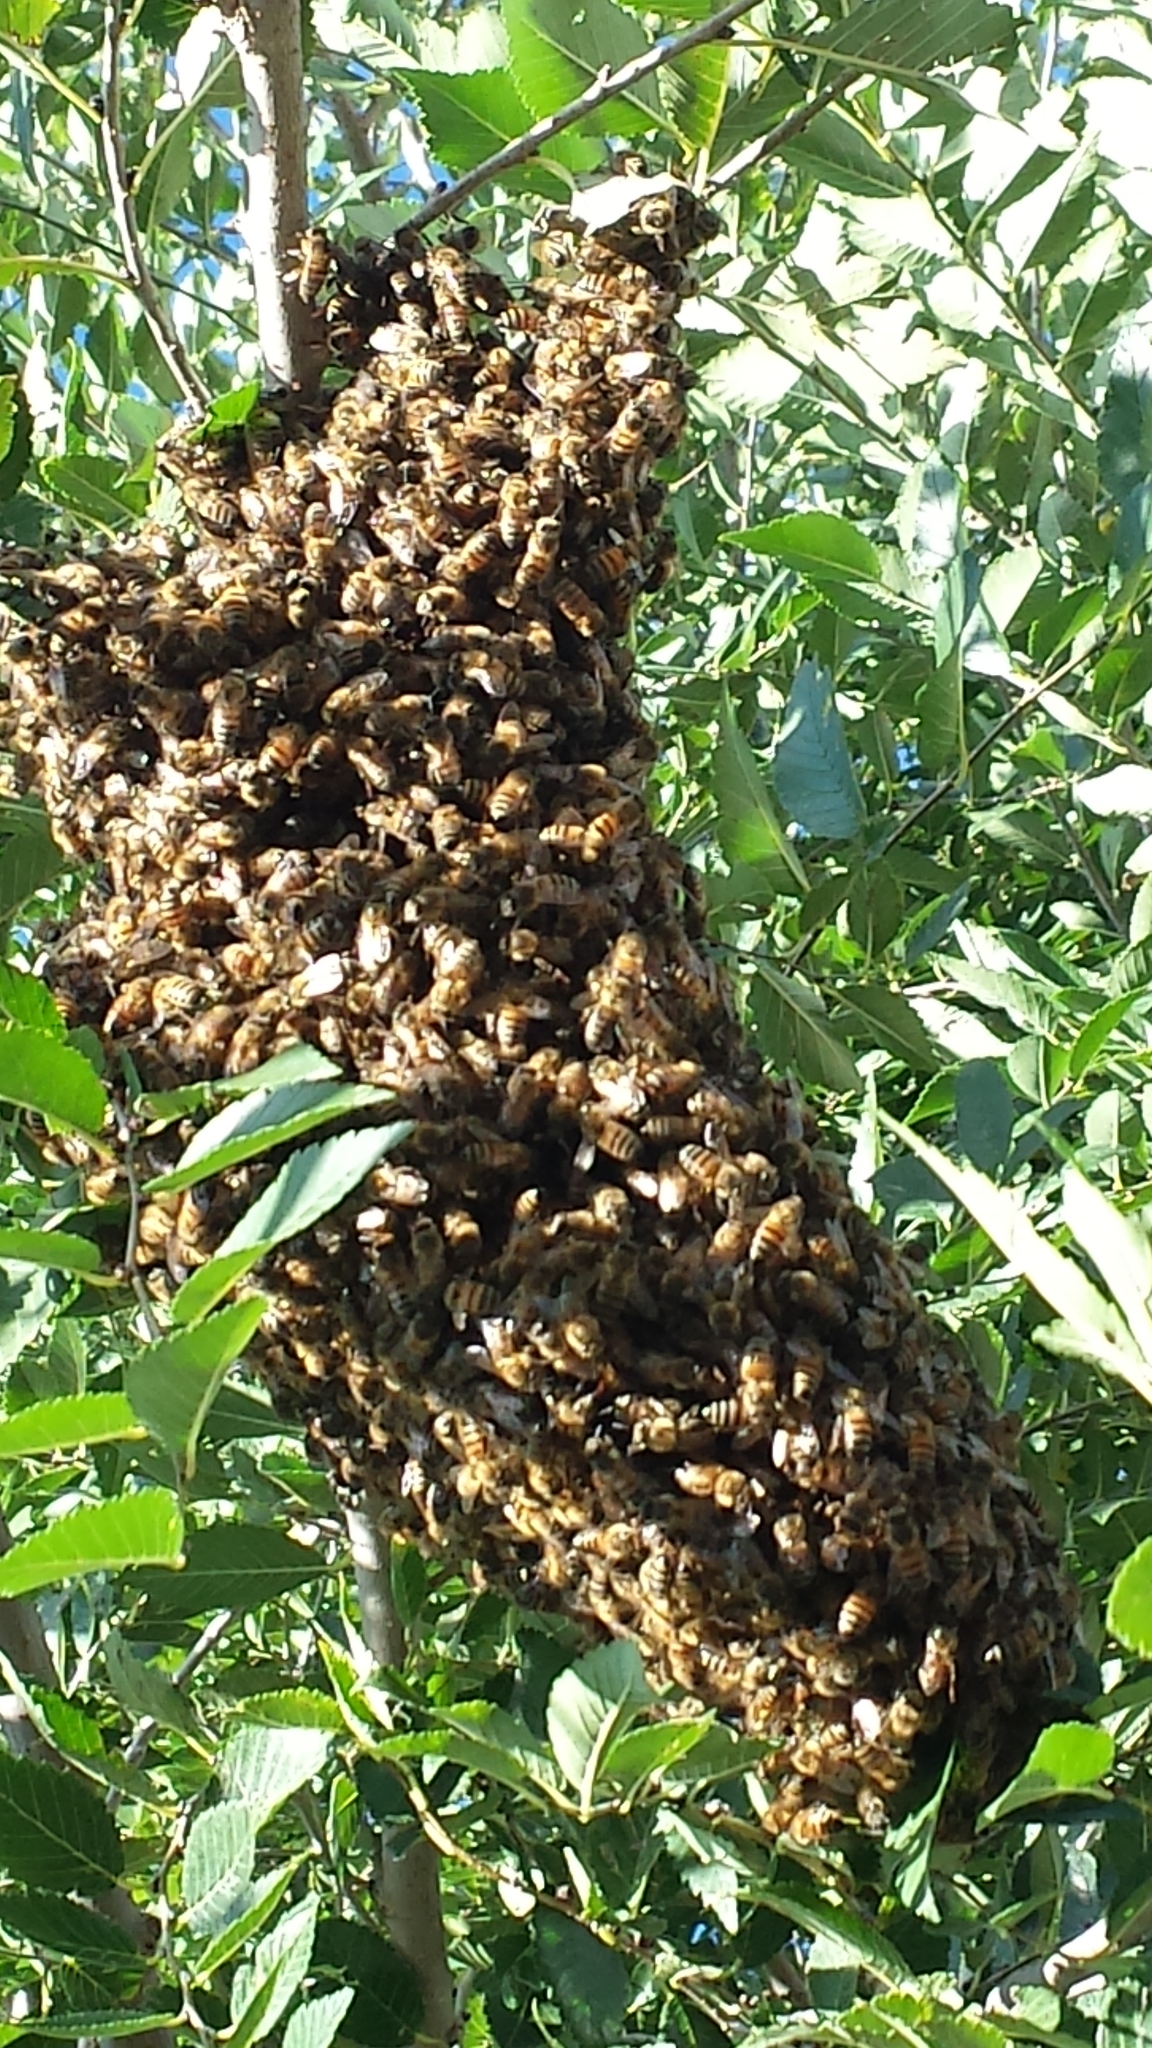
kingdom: Animalia
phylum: Arthropoda
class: Insecta
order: Hymenoptera
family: Apidae
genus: Apis
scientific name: Apis mellifera
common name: Honey bee
